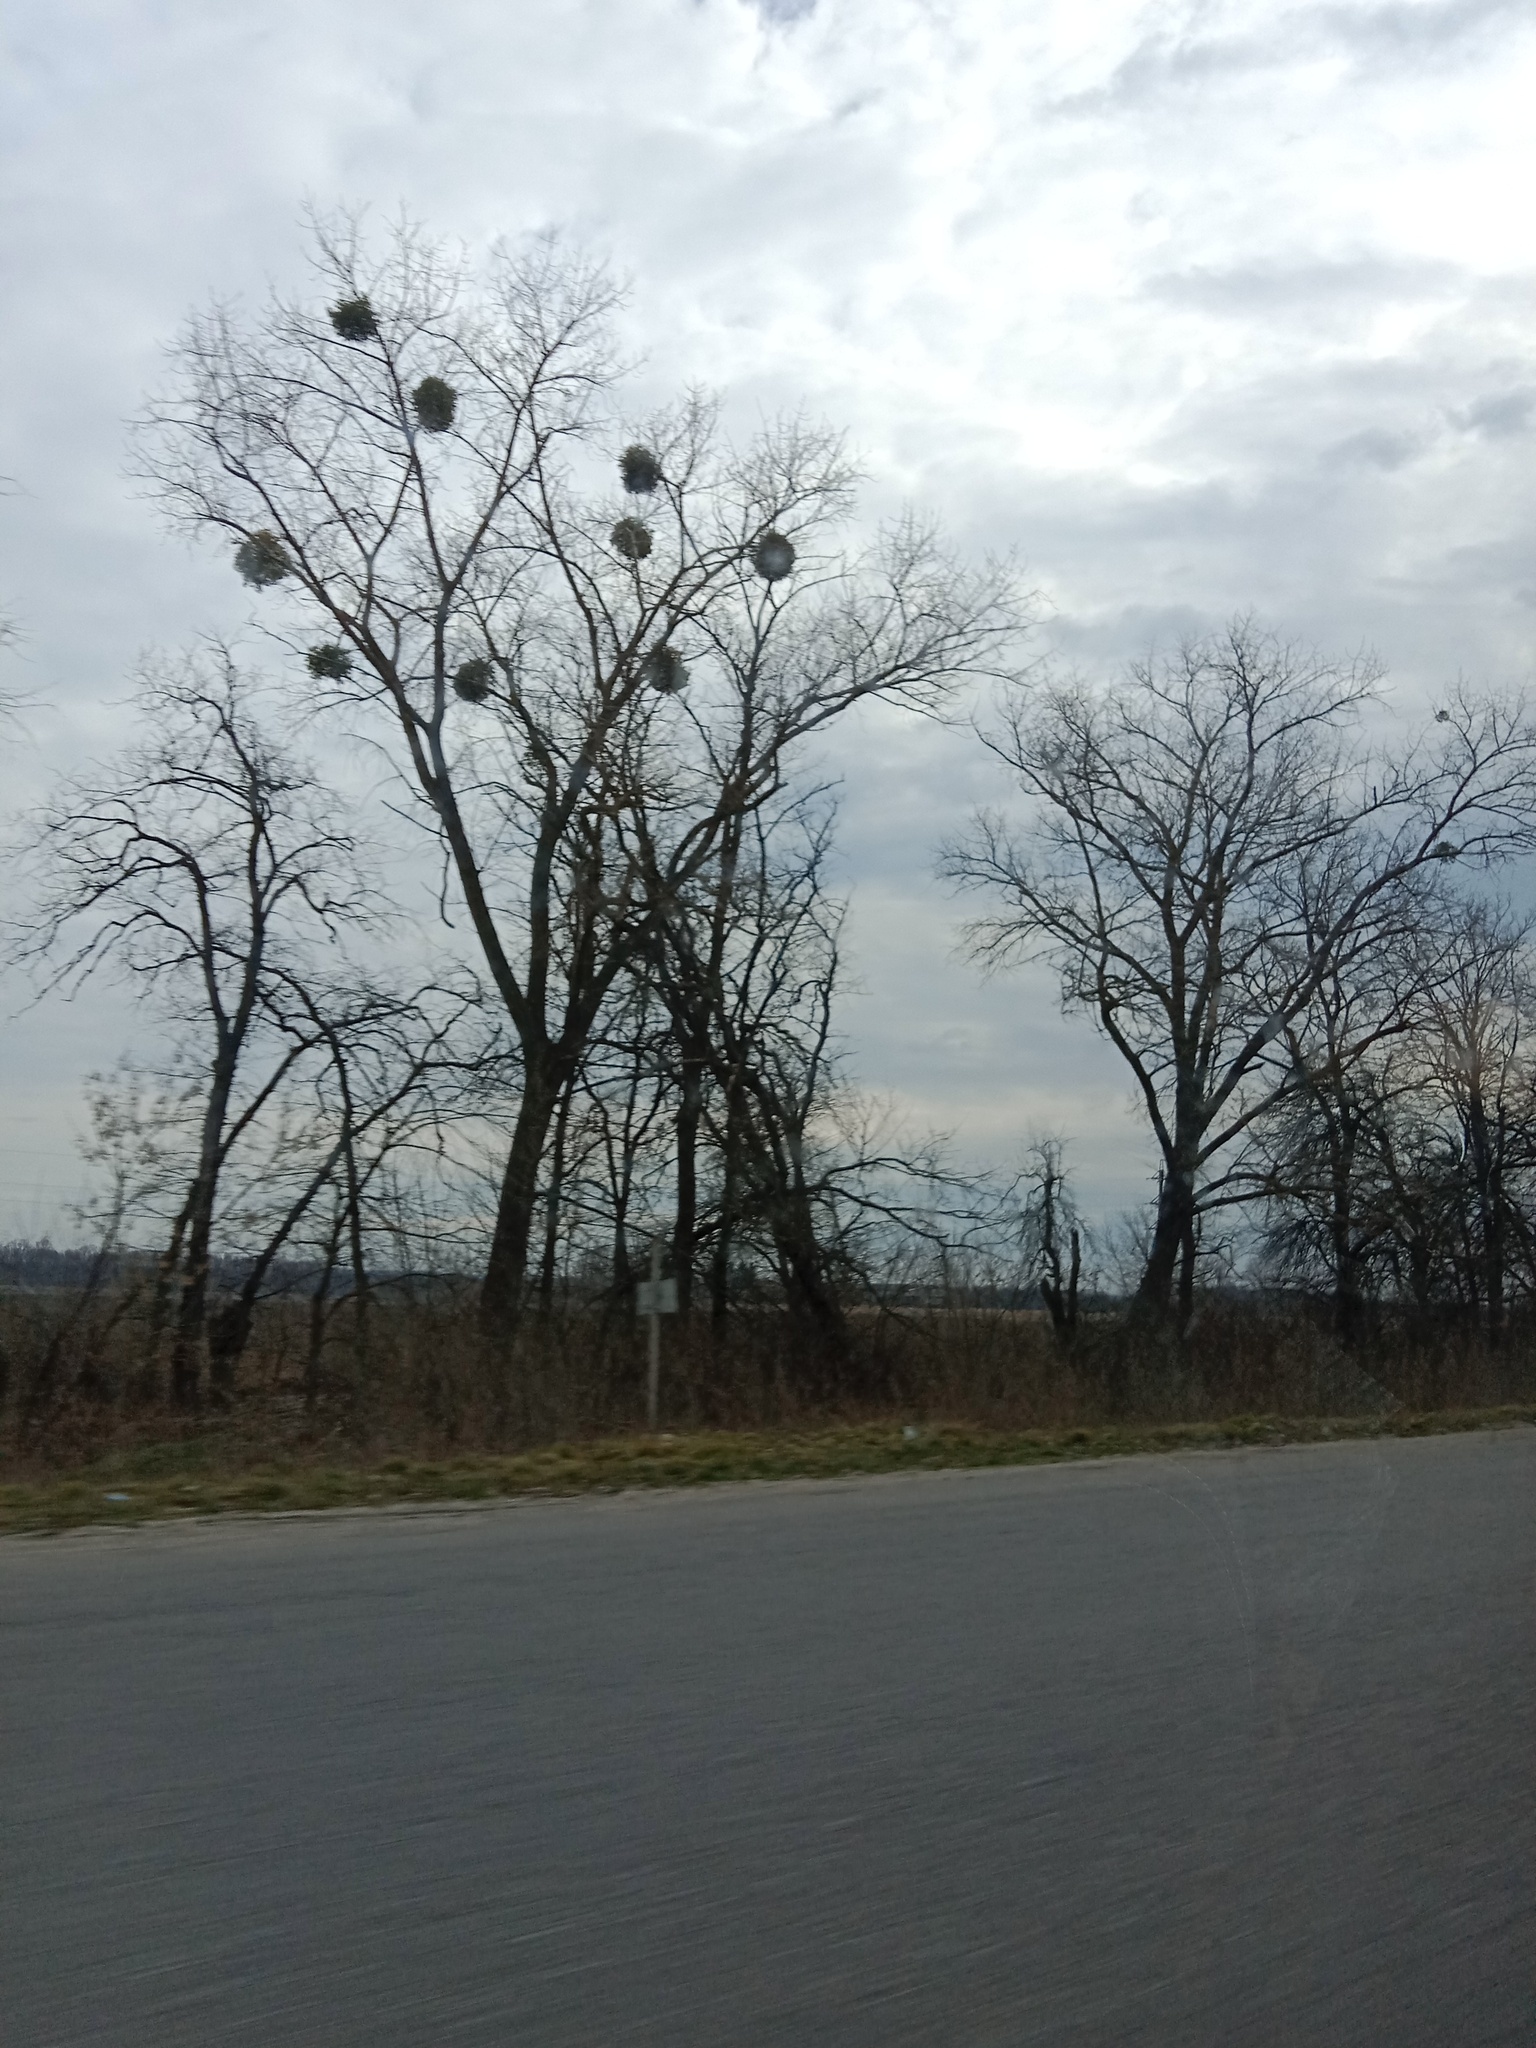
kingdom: Plantae
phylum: Tracheophyta
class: Magnoliopsida
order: Santalales
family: Viscaceae
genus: Viscum
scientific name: Viscum album
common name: Mistletoe
